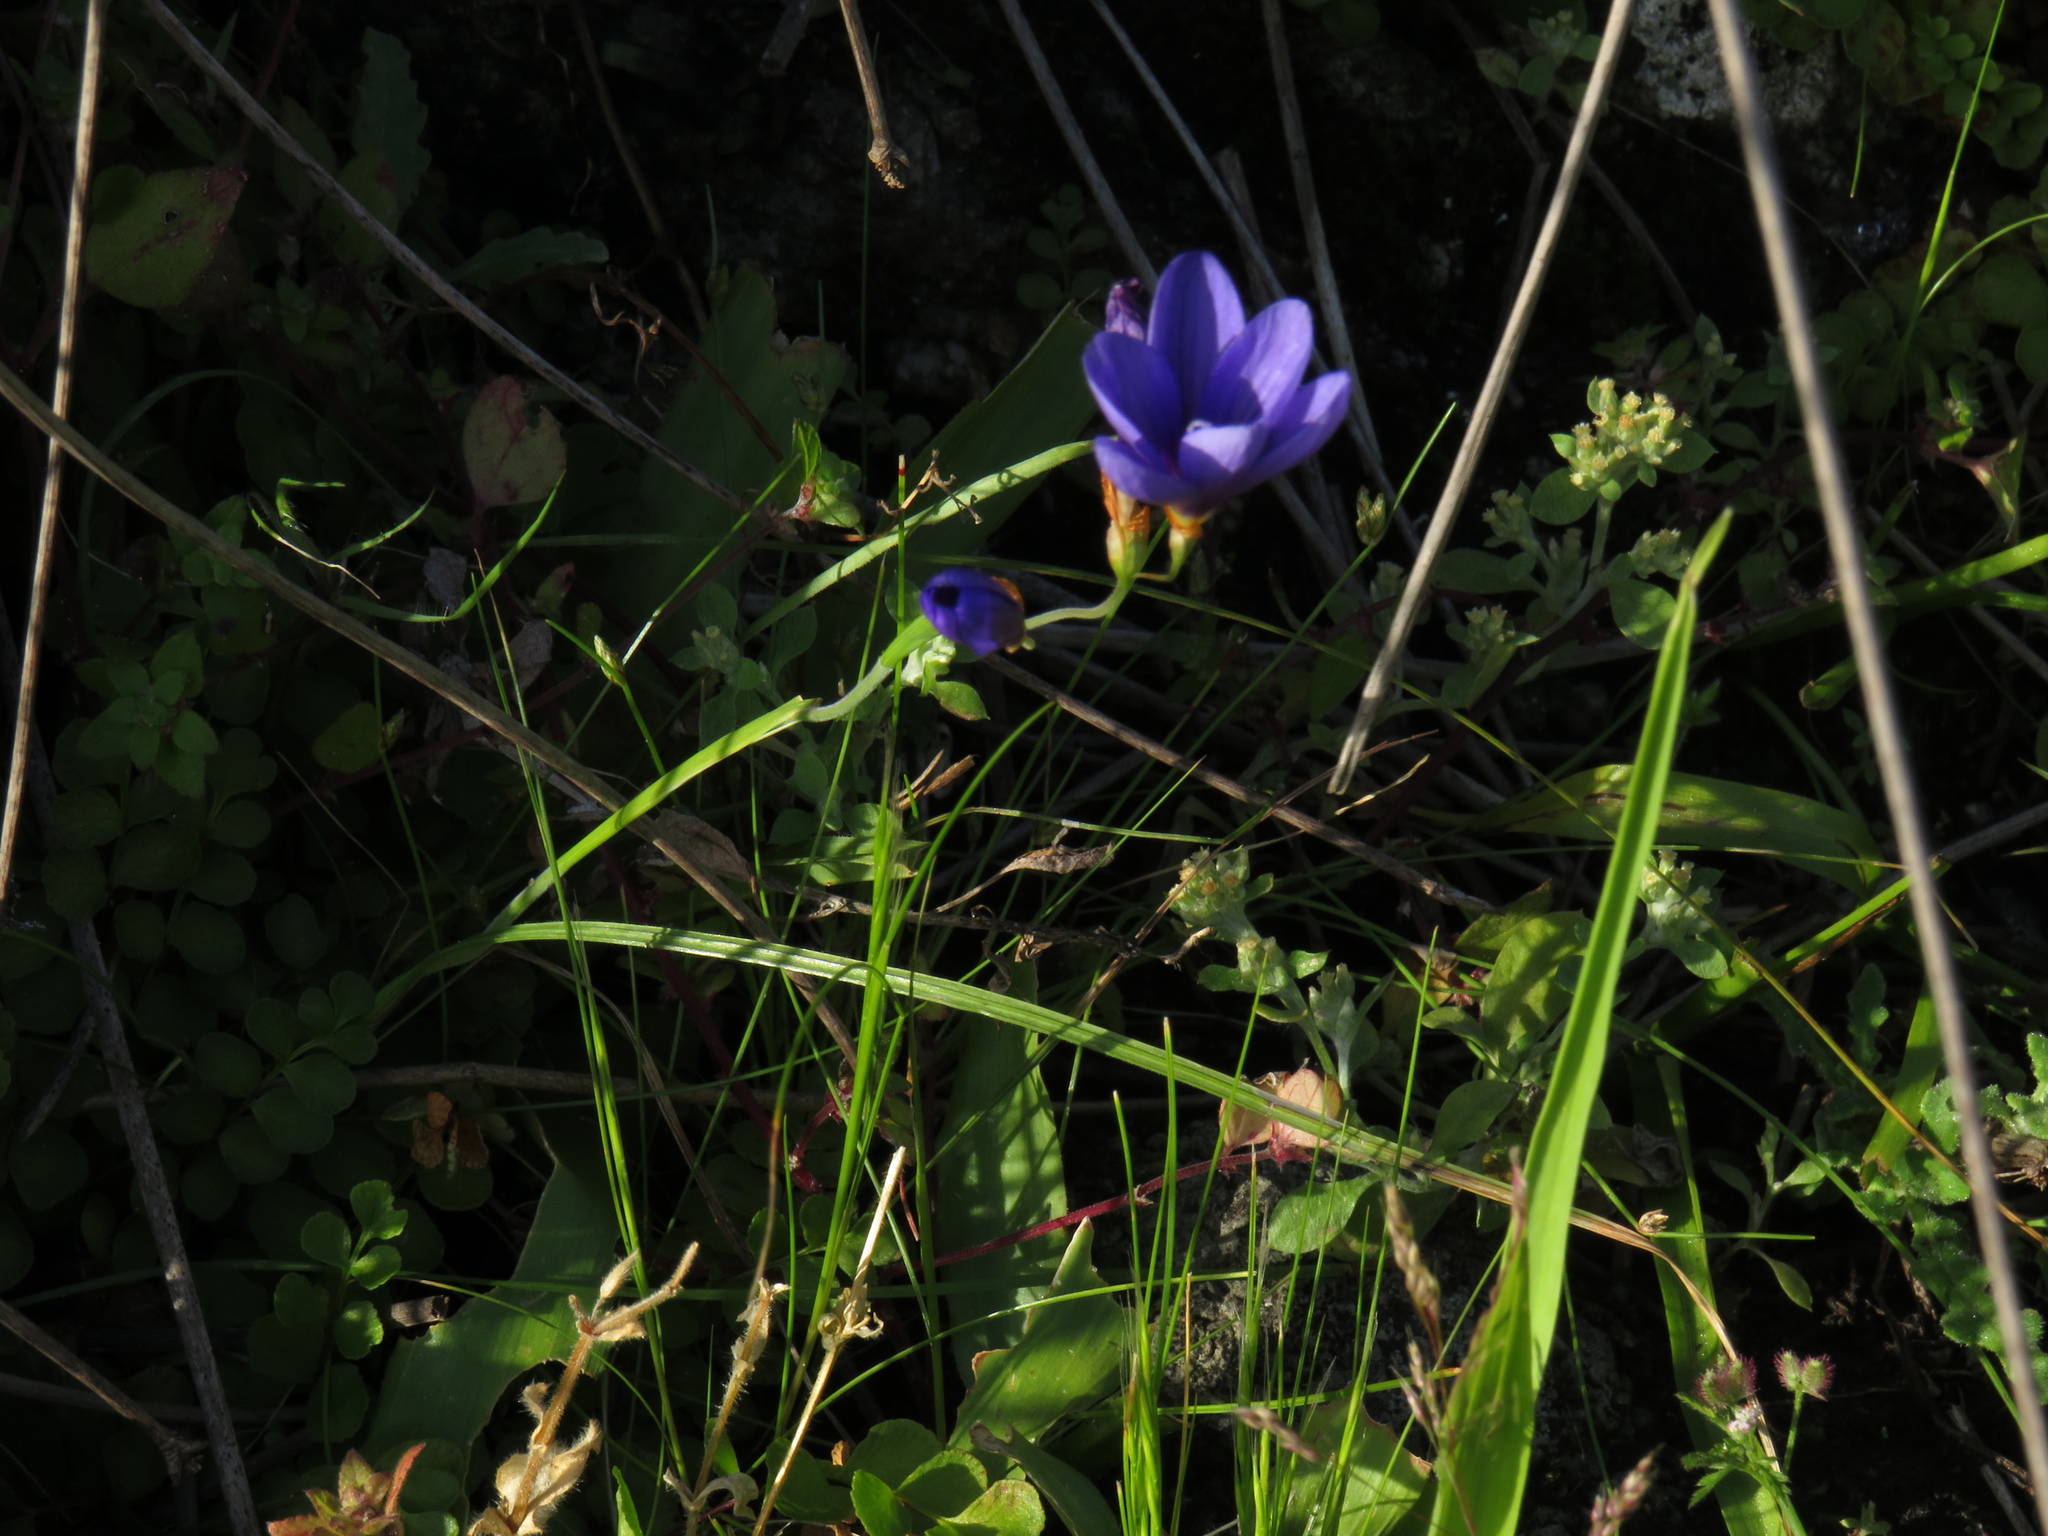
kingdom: Plantae
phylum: Tracheophyta
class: Liliopsida
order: Asparagales
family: Iridaceae
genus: Geissorhiza
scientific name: Geissorhiza lewisiae
